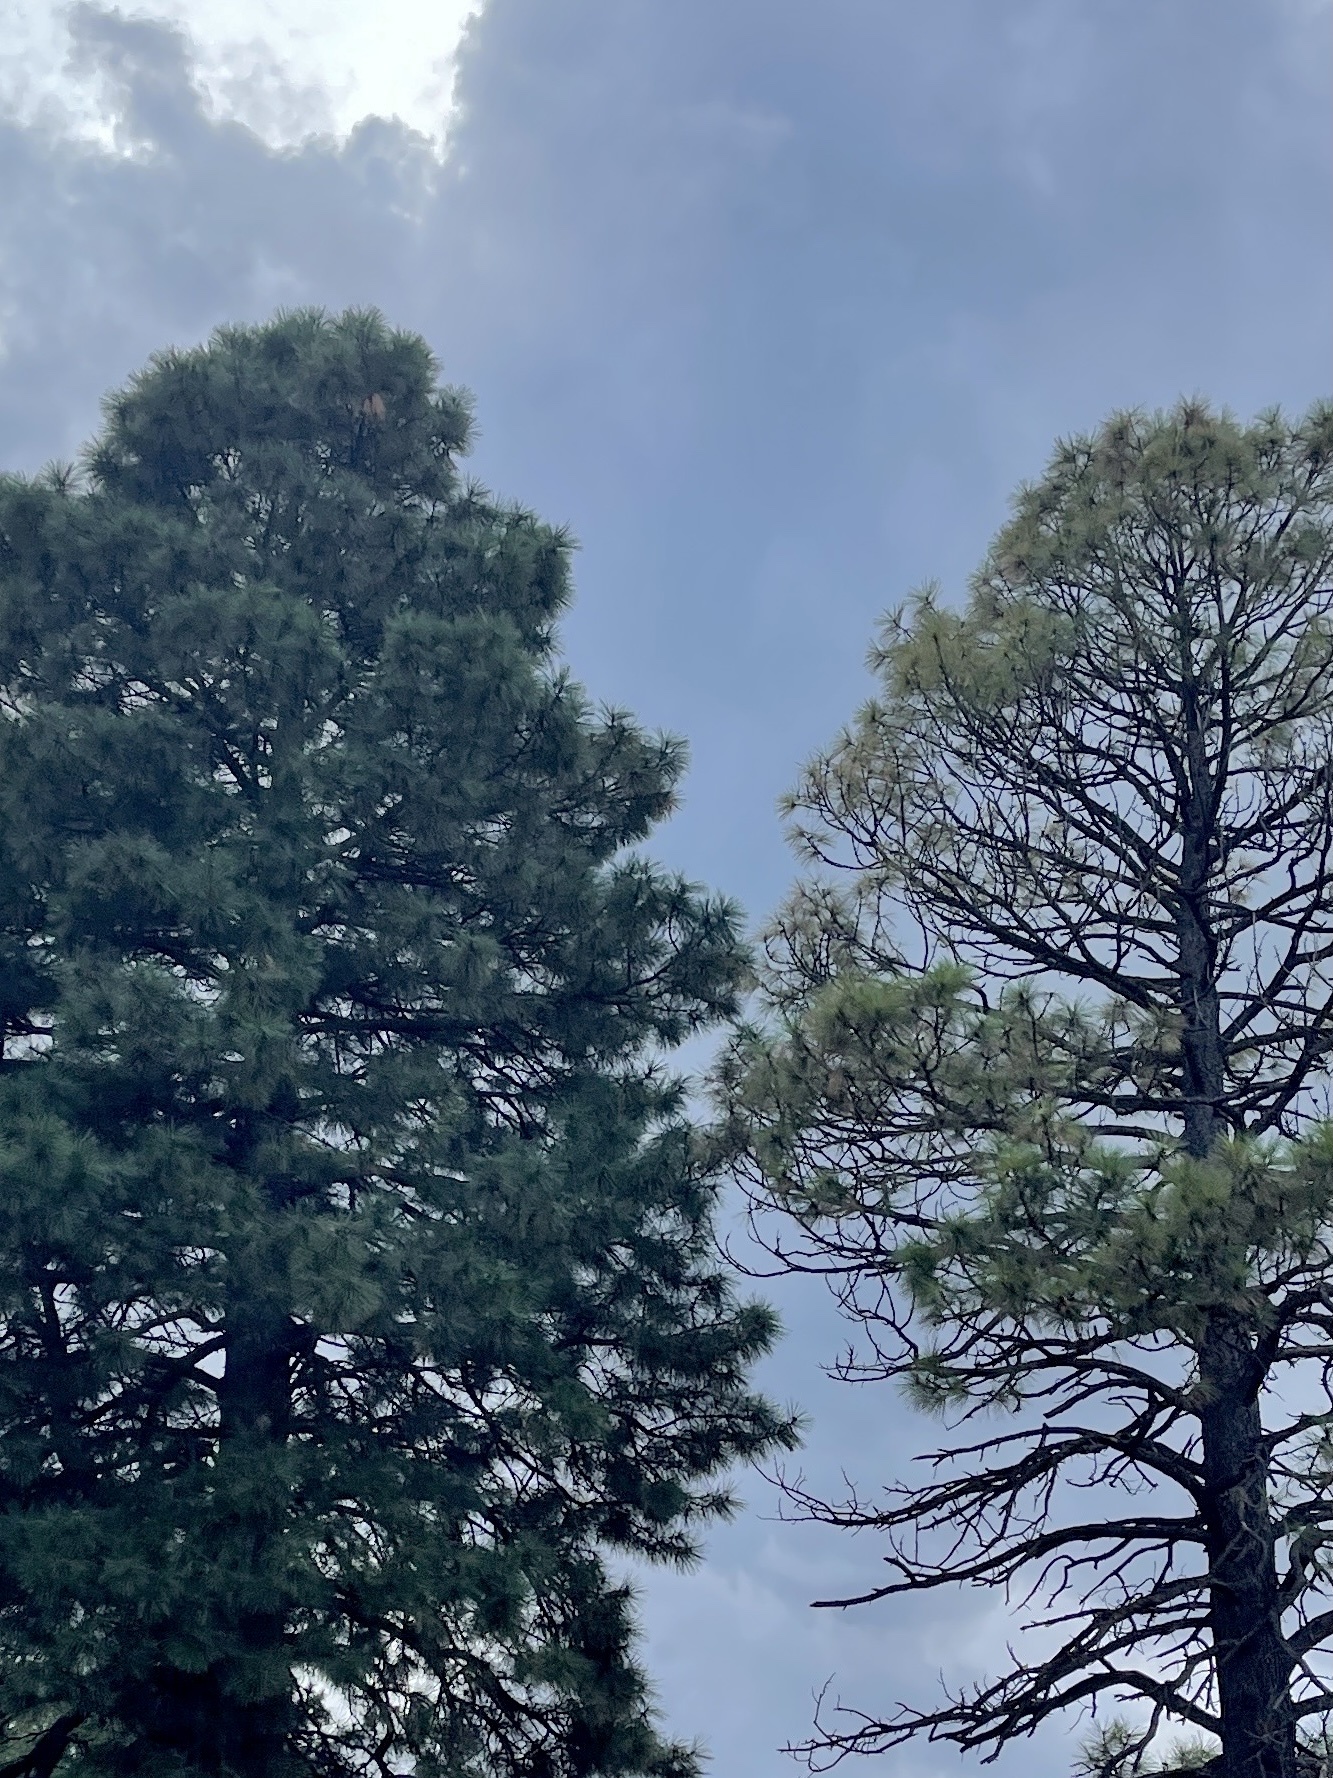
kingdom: Plantae
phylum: Tracheophyta
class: Pinopsida
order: Pinales
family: Pinaceae
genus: Pinus
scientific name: Pinus ponderosa
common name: Western yellow-pine
